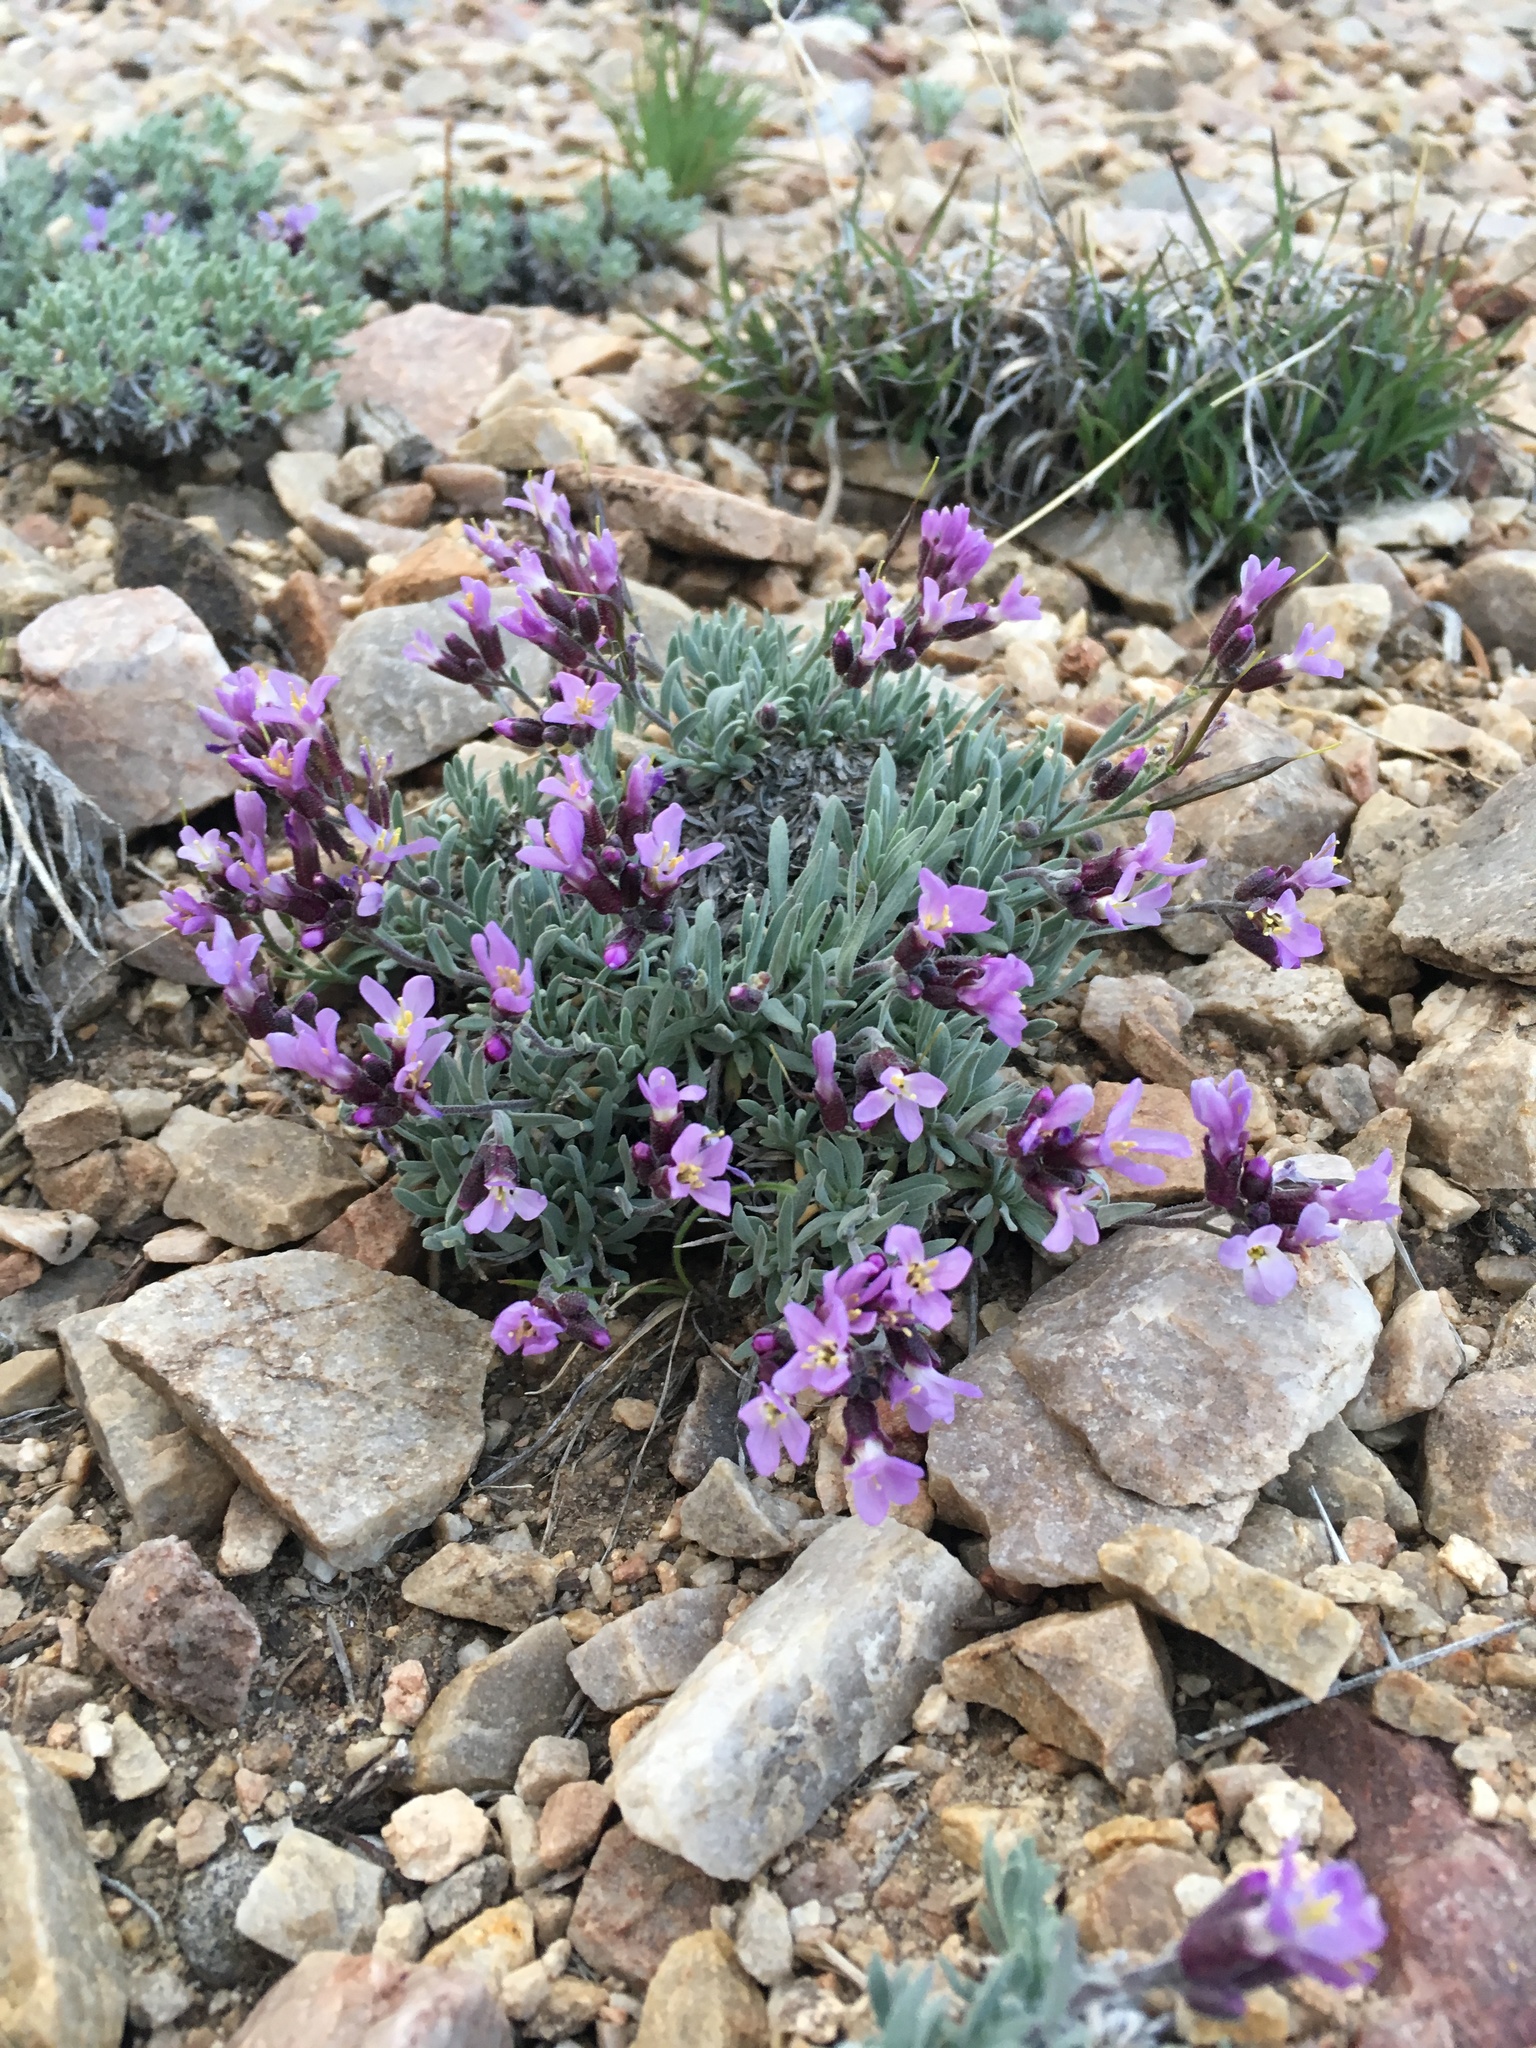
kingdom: Plantae
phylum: Tracheophyta
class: Magnoliopsida
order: Brassicales
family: Brassicaceae
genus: Boechera
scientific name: Boechera parishii
